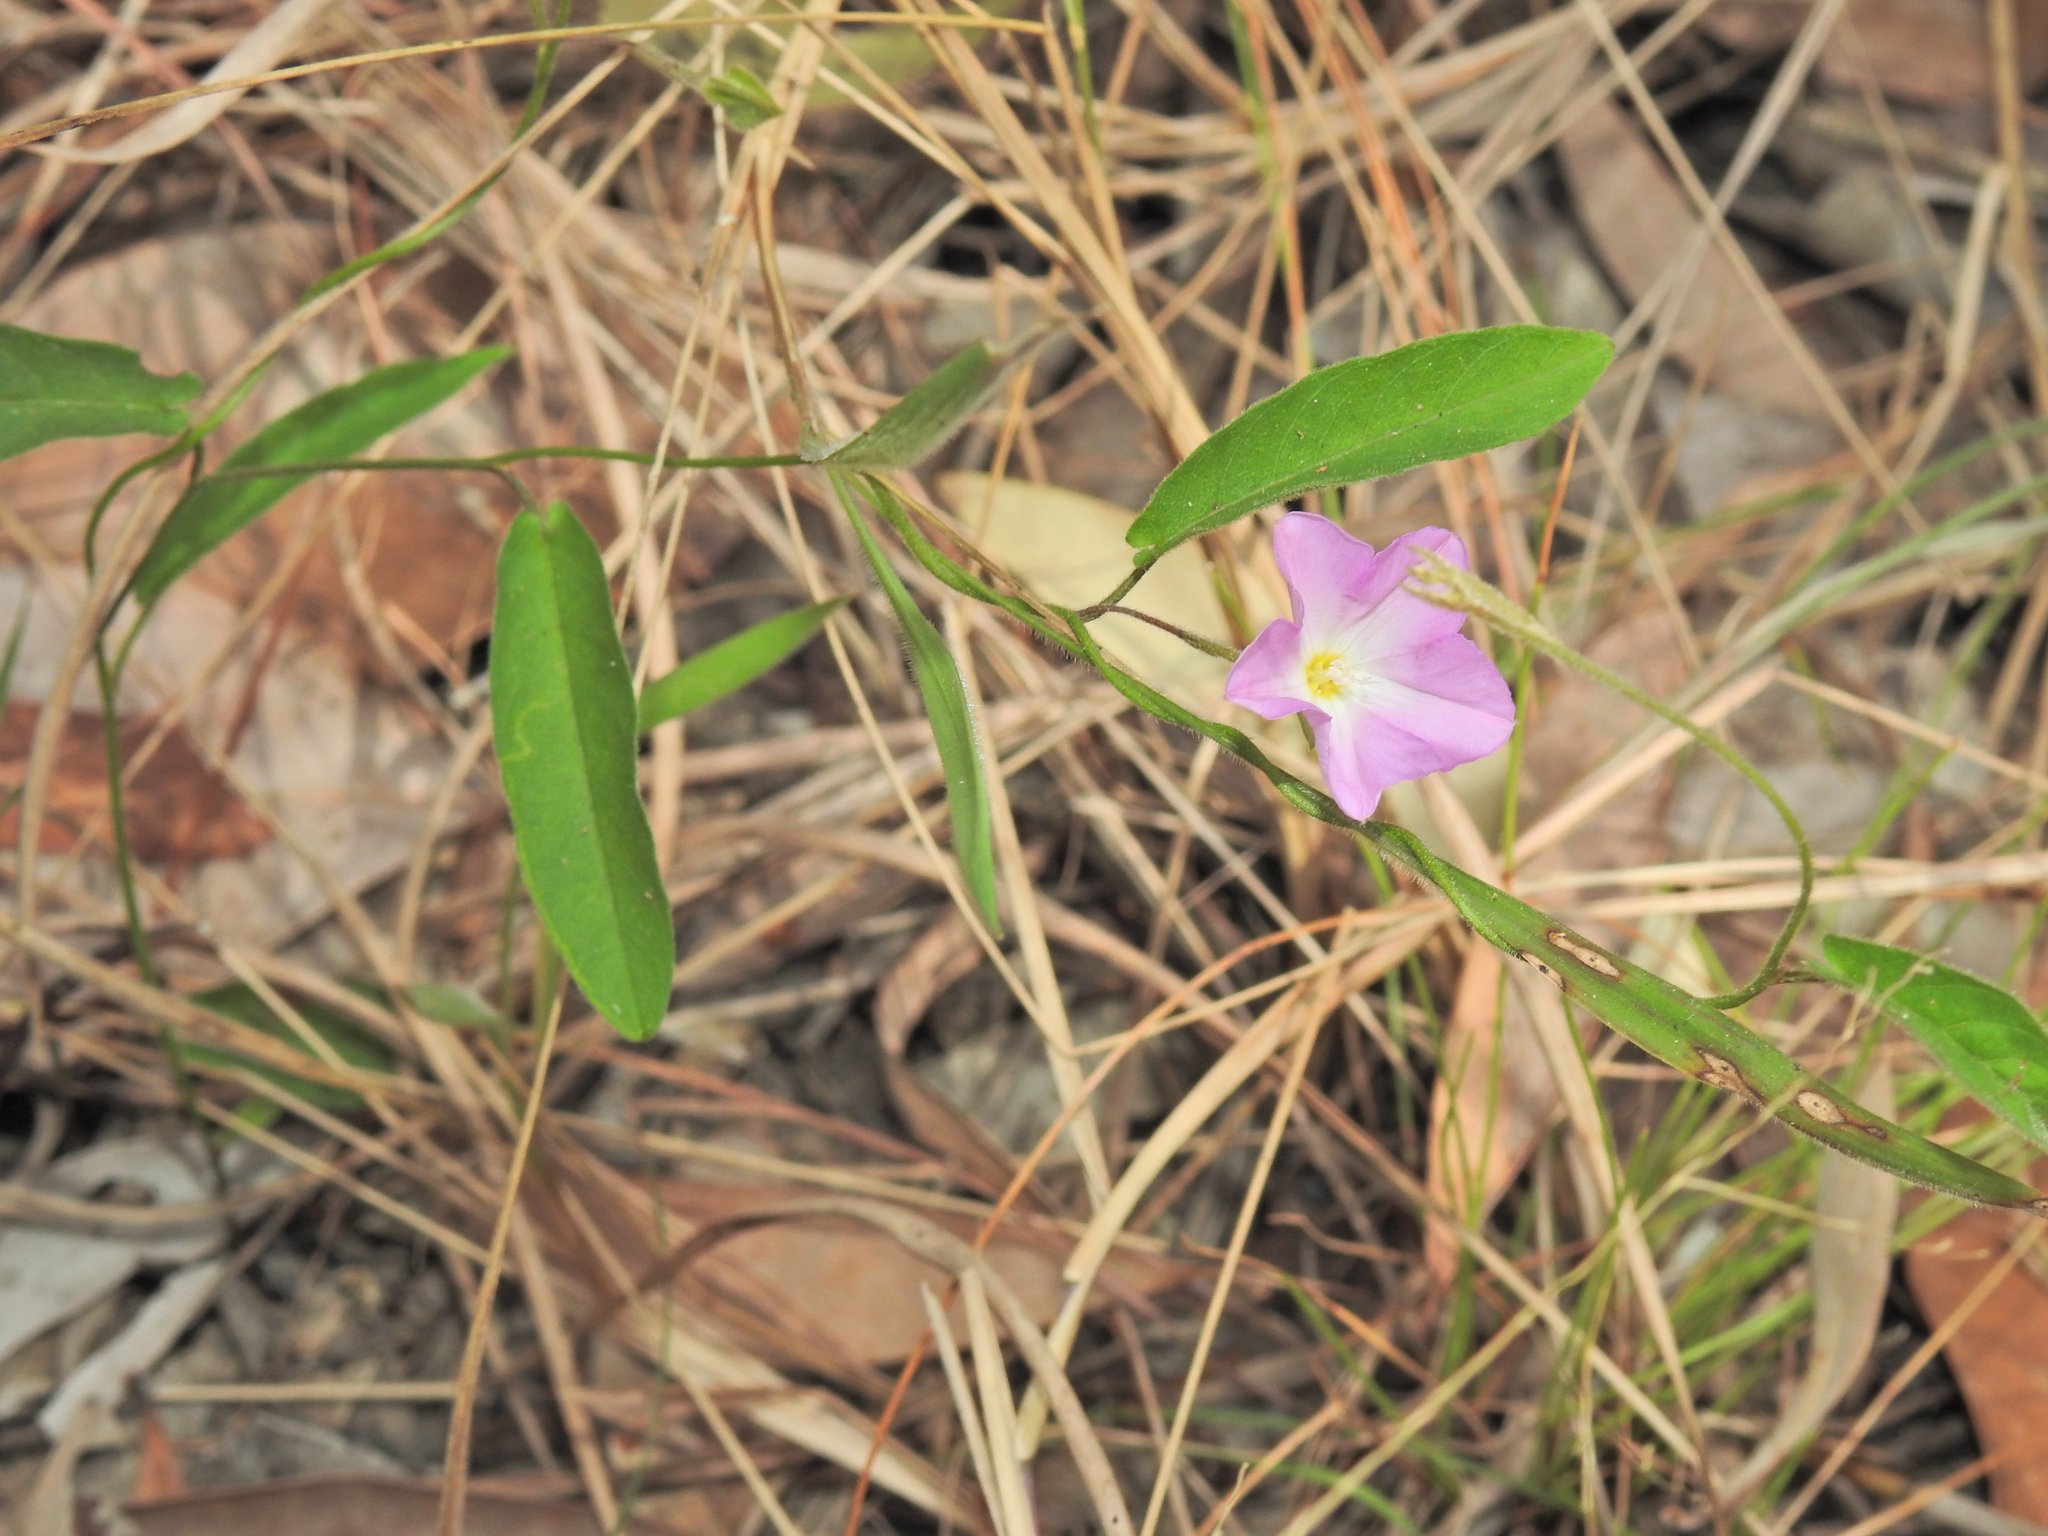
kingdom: Plantae
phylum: Tracheophyta
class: Magnoliopsida
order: Solanales
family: Convolvulaceae
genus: Polymeria
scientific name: Polymeria calycina
